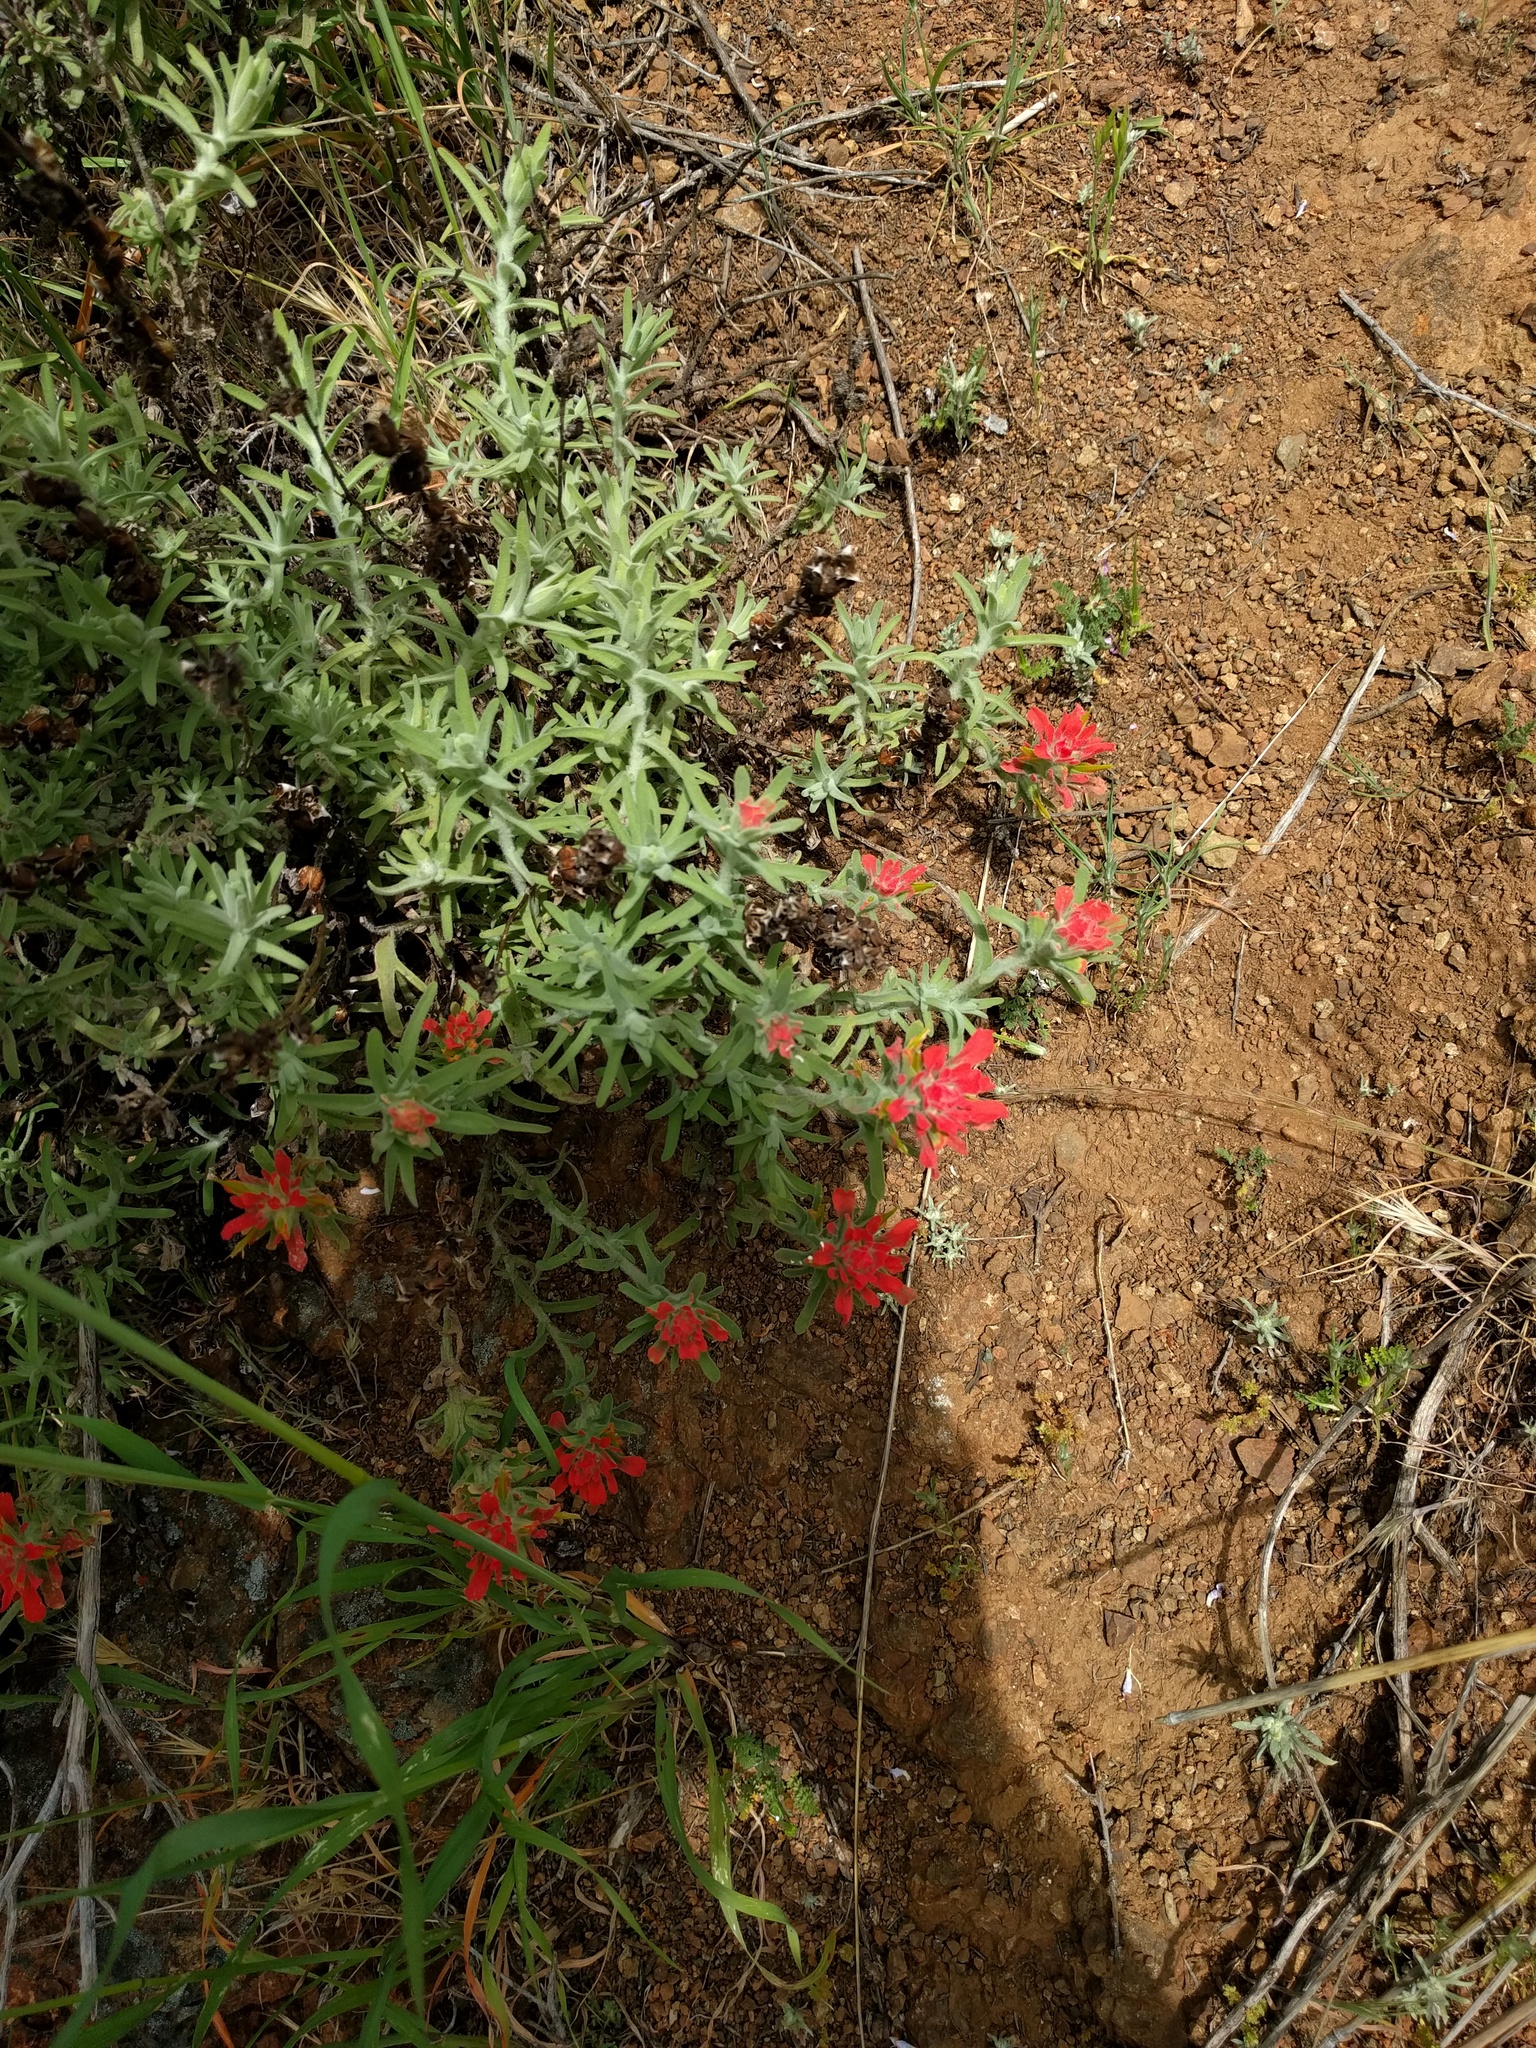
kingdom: Plantae
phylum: Tracheophyta
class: Magnoliopsida
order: Lamiales
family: Orobanchaceae
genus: Castilleja
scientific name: Castilleja foliolosa
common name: Woolly indian paintbrush
